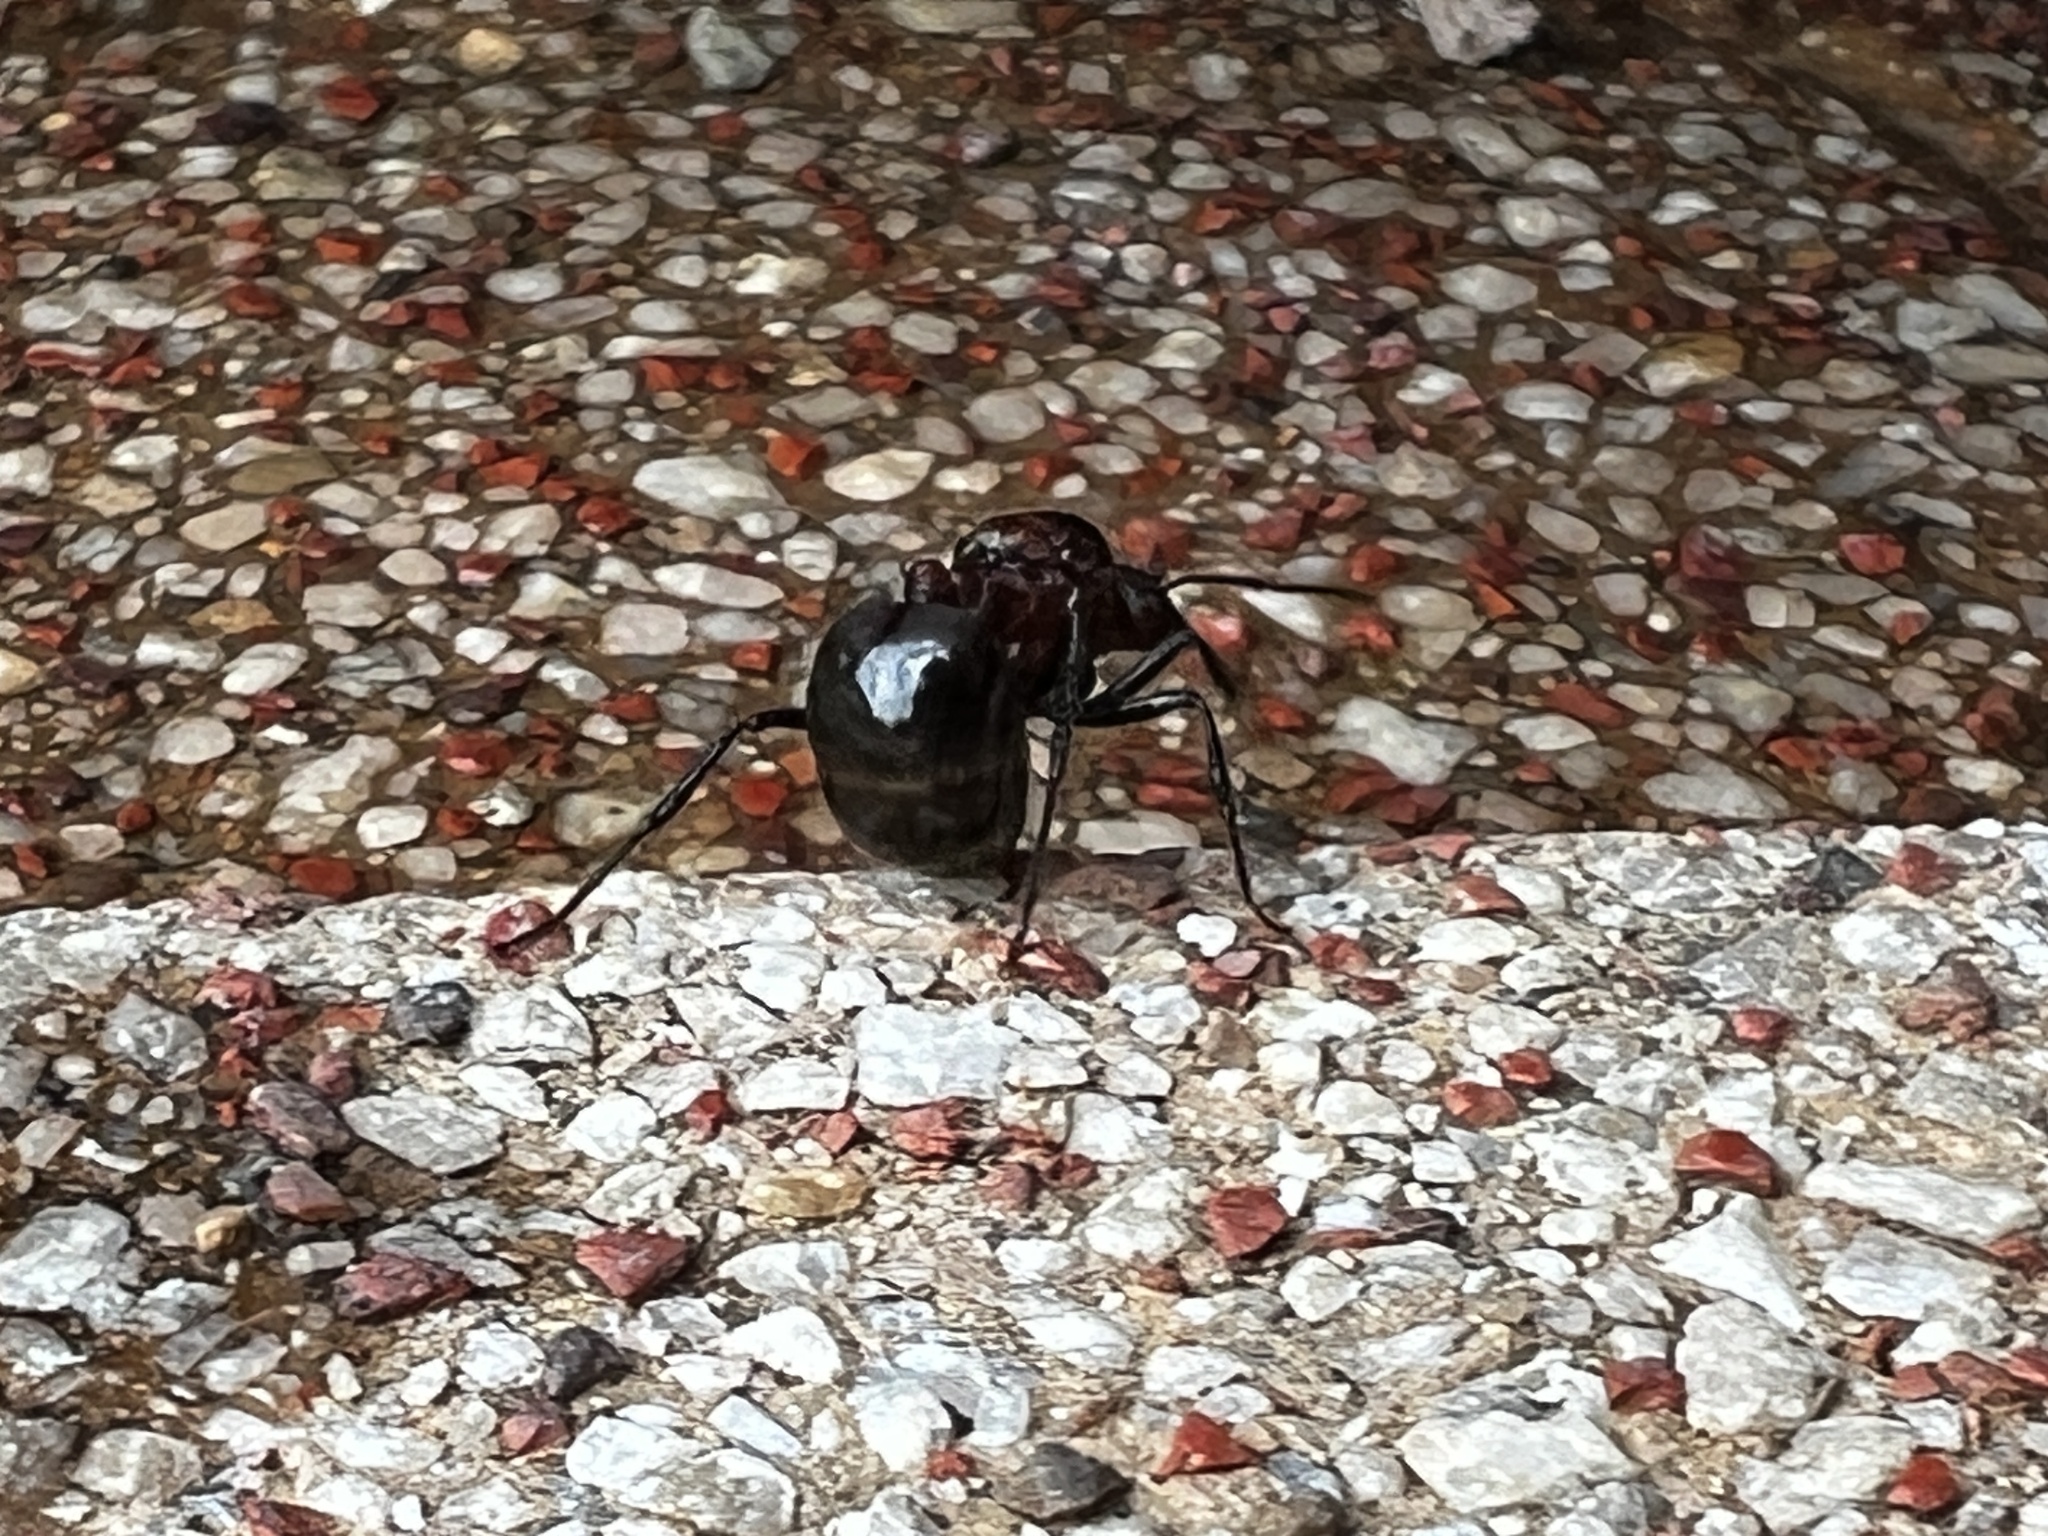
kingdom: Animalia
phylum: Arthropoda
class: Insecta
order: Hymenoptera
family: Formicidae
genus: Myrmicaria
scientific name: Myrmicaria natalensis
